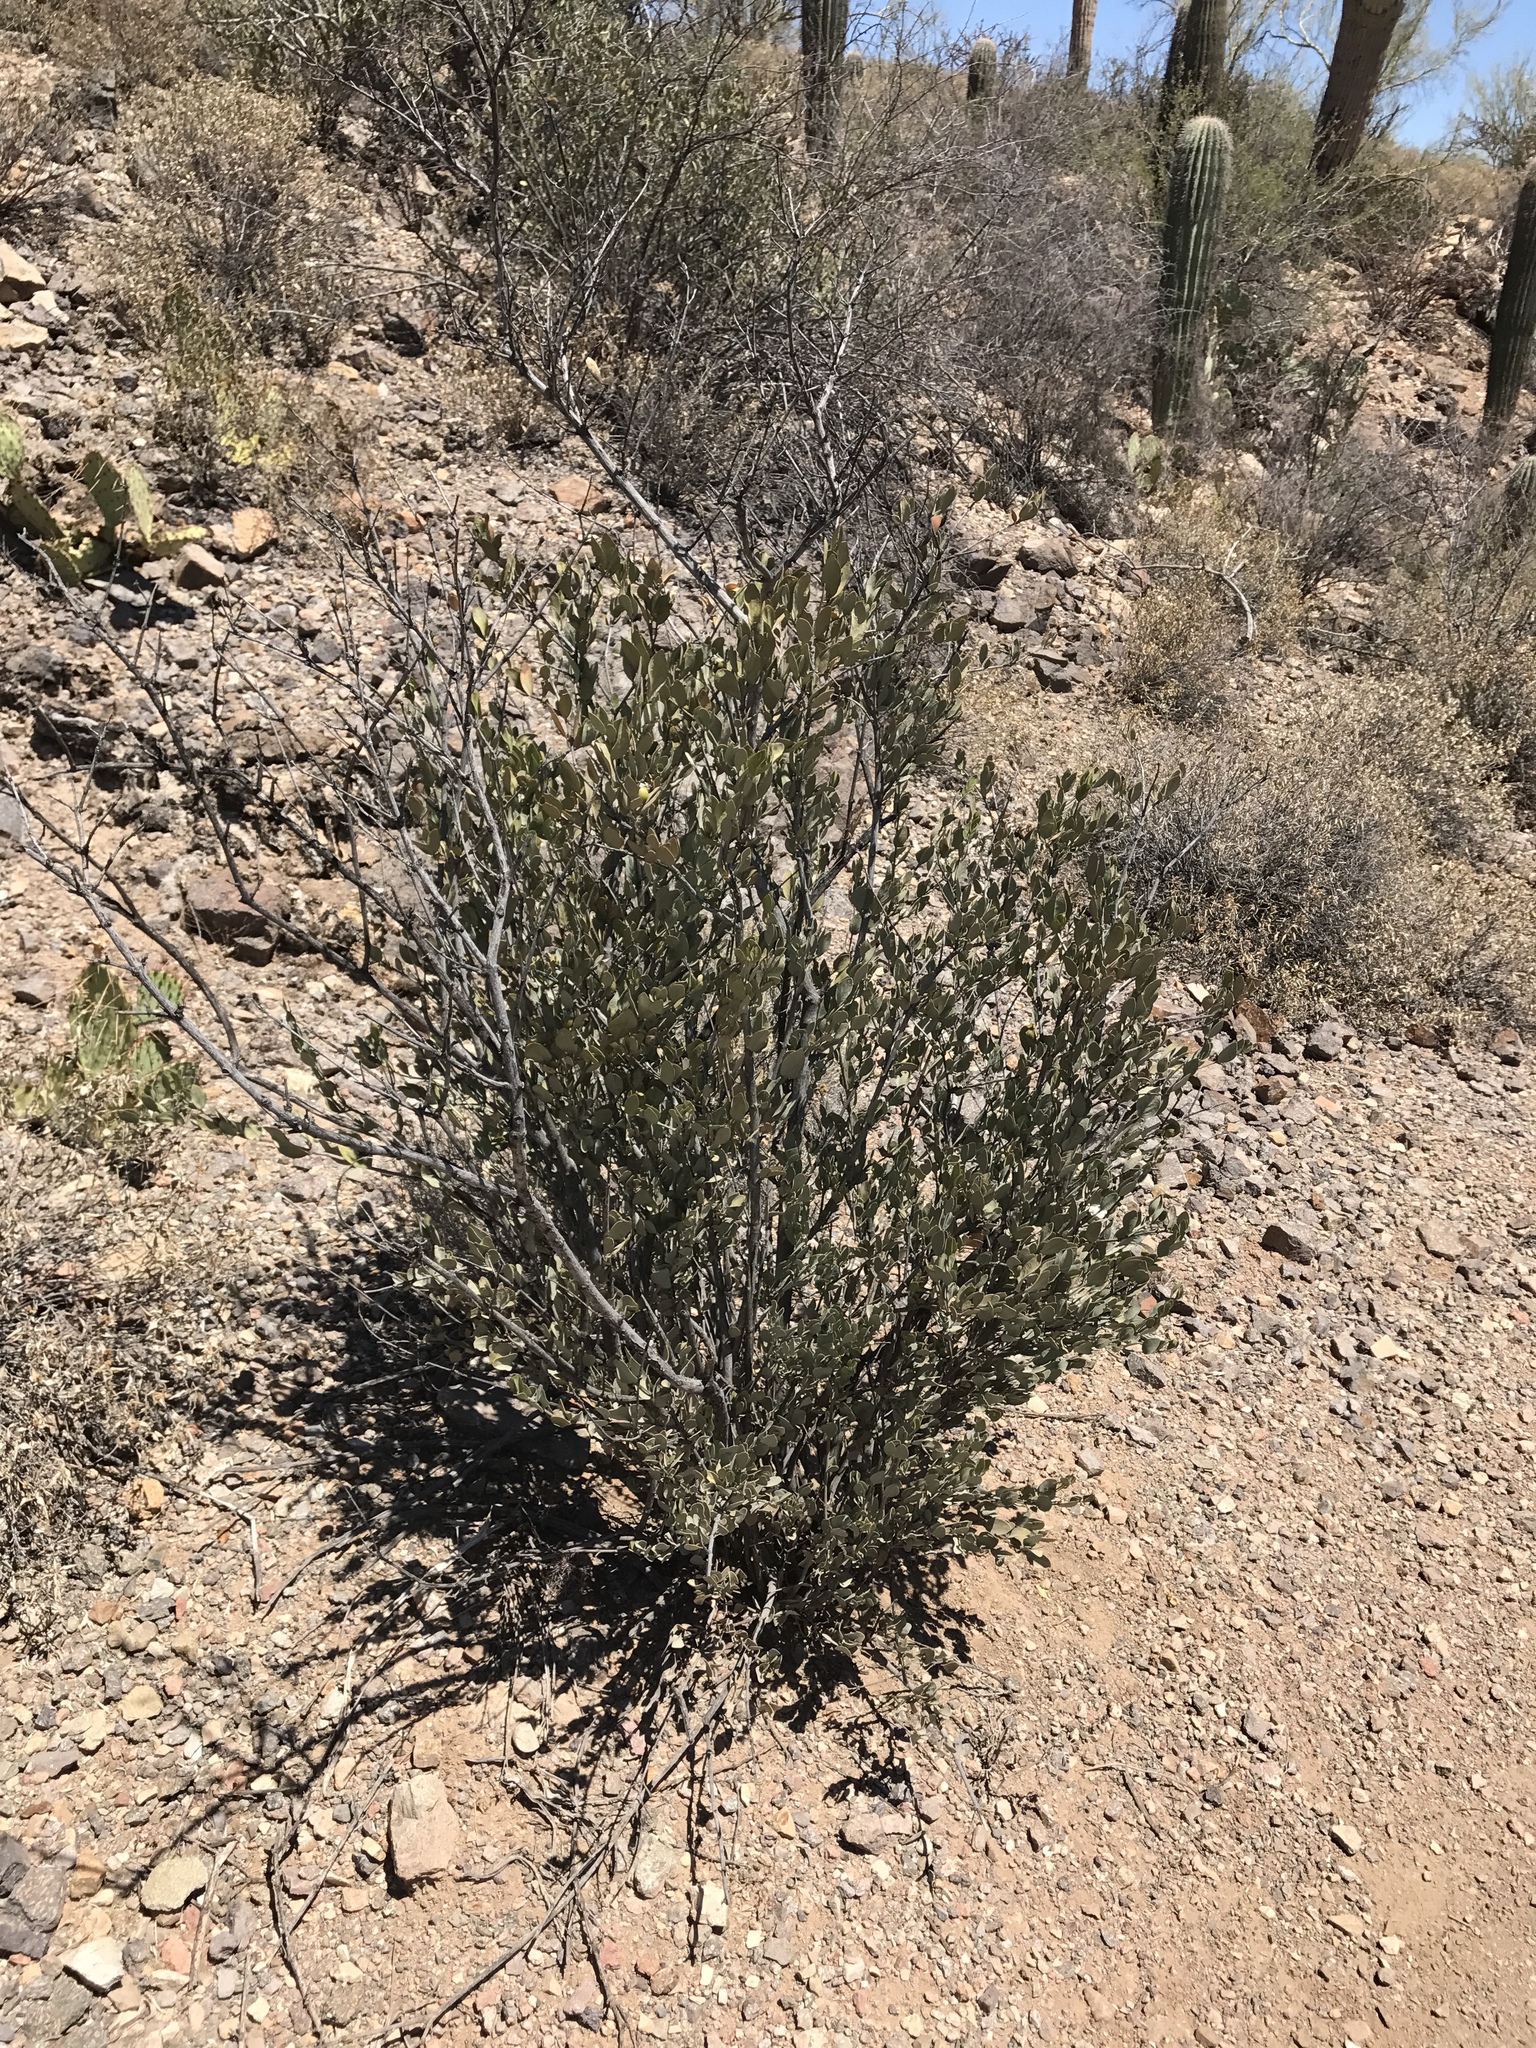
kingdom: Plantae
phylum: Tracheophyta
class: Magnoliopsida
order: Caryophyllales
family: Simmondsiaceae
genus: Simmondsia
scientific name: Simmondsia chinensis
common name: Jojoba
